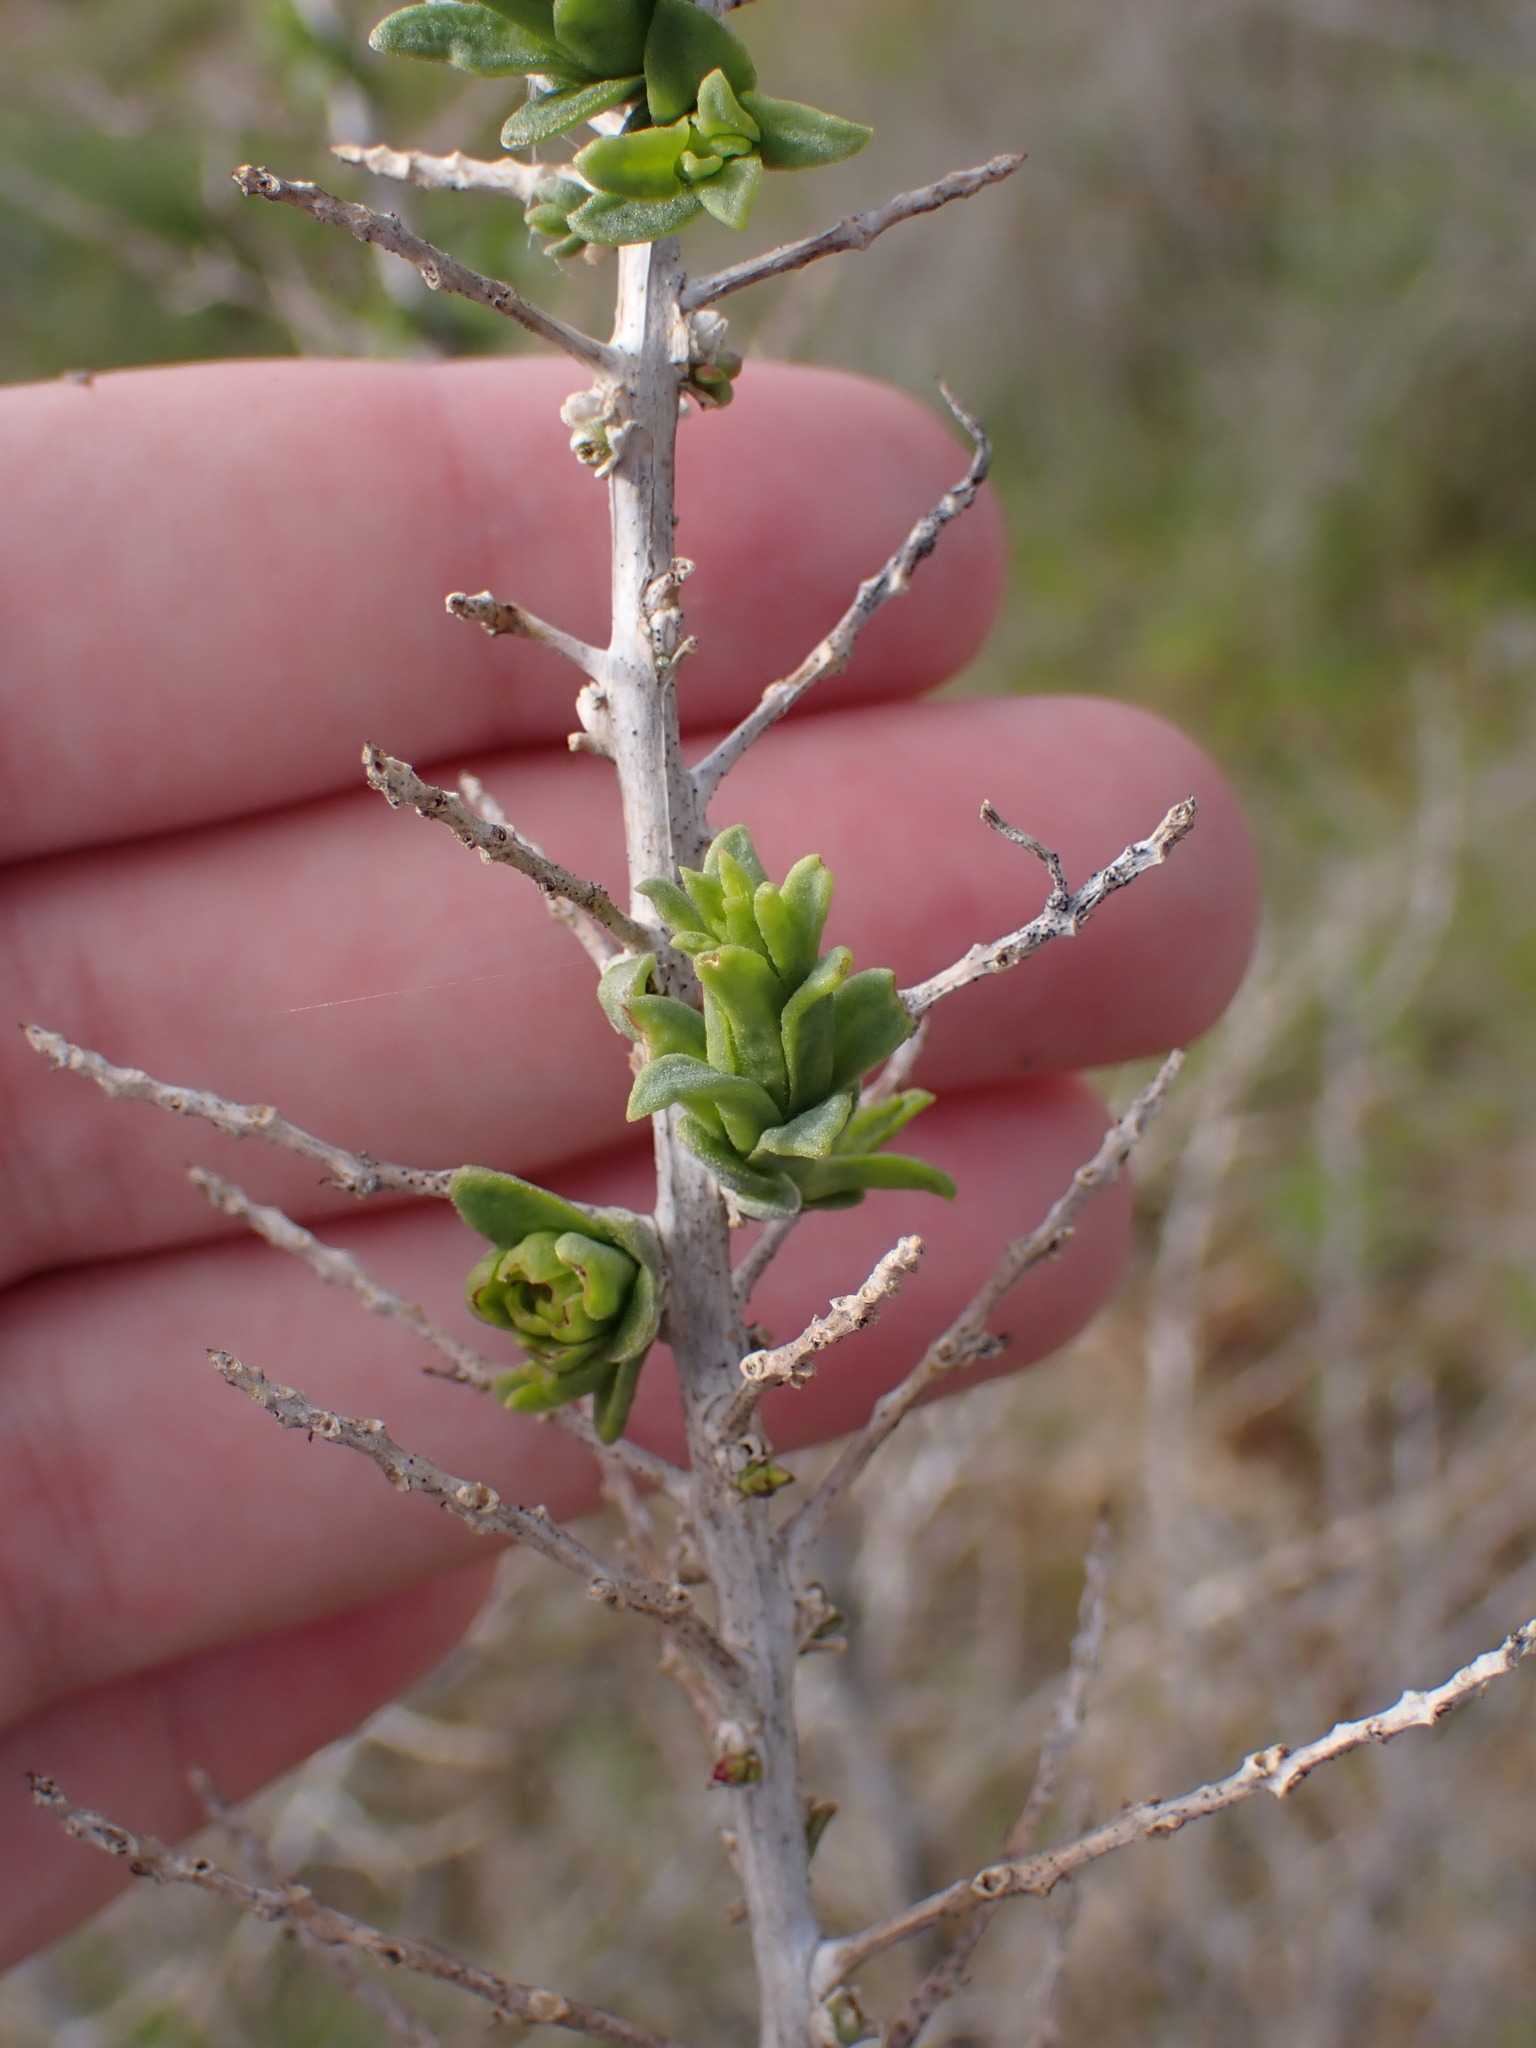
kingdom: Plantae
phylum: Tracheophyta
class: Magnoliopsida
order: Caryophyllales
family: Sarcobataceae
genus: Sarcobatus
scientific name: Sarcobatus vermiculatus
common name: Greasewood
